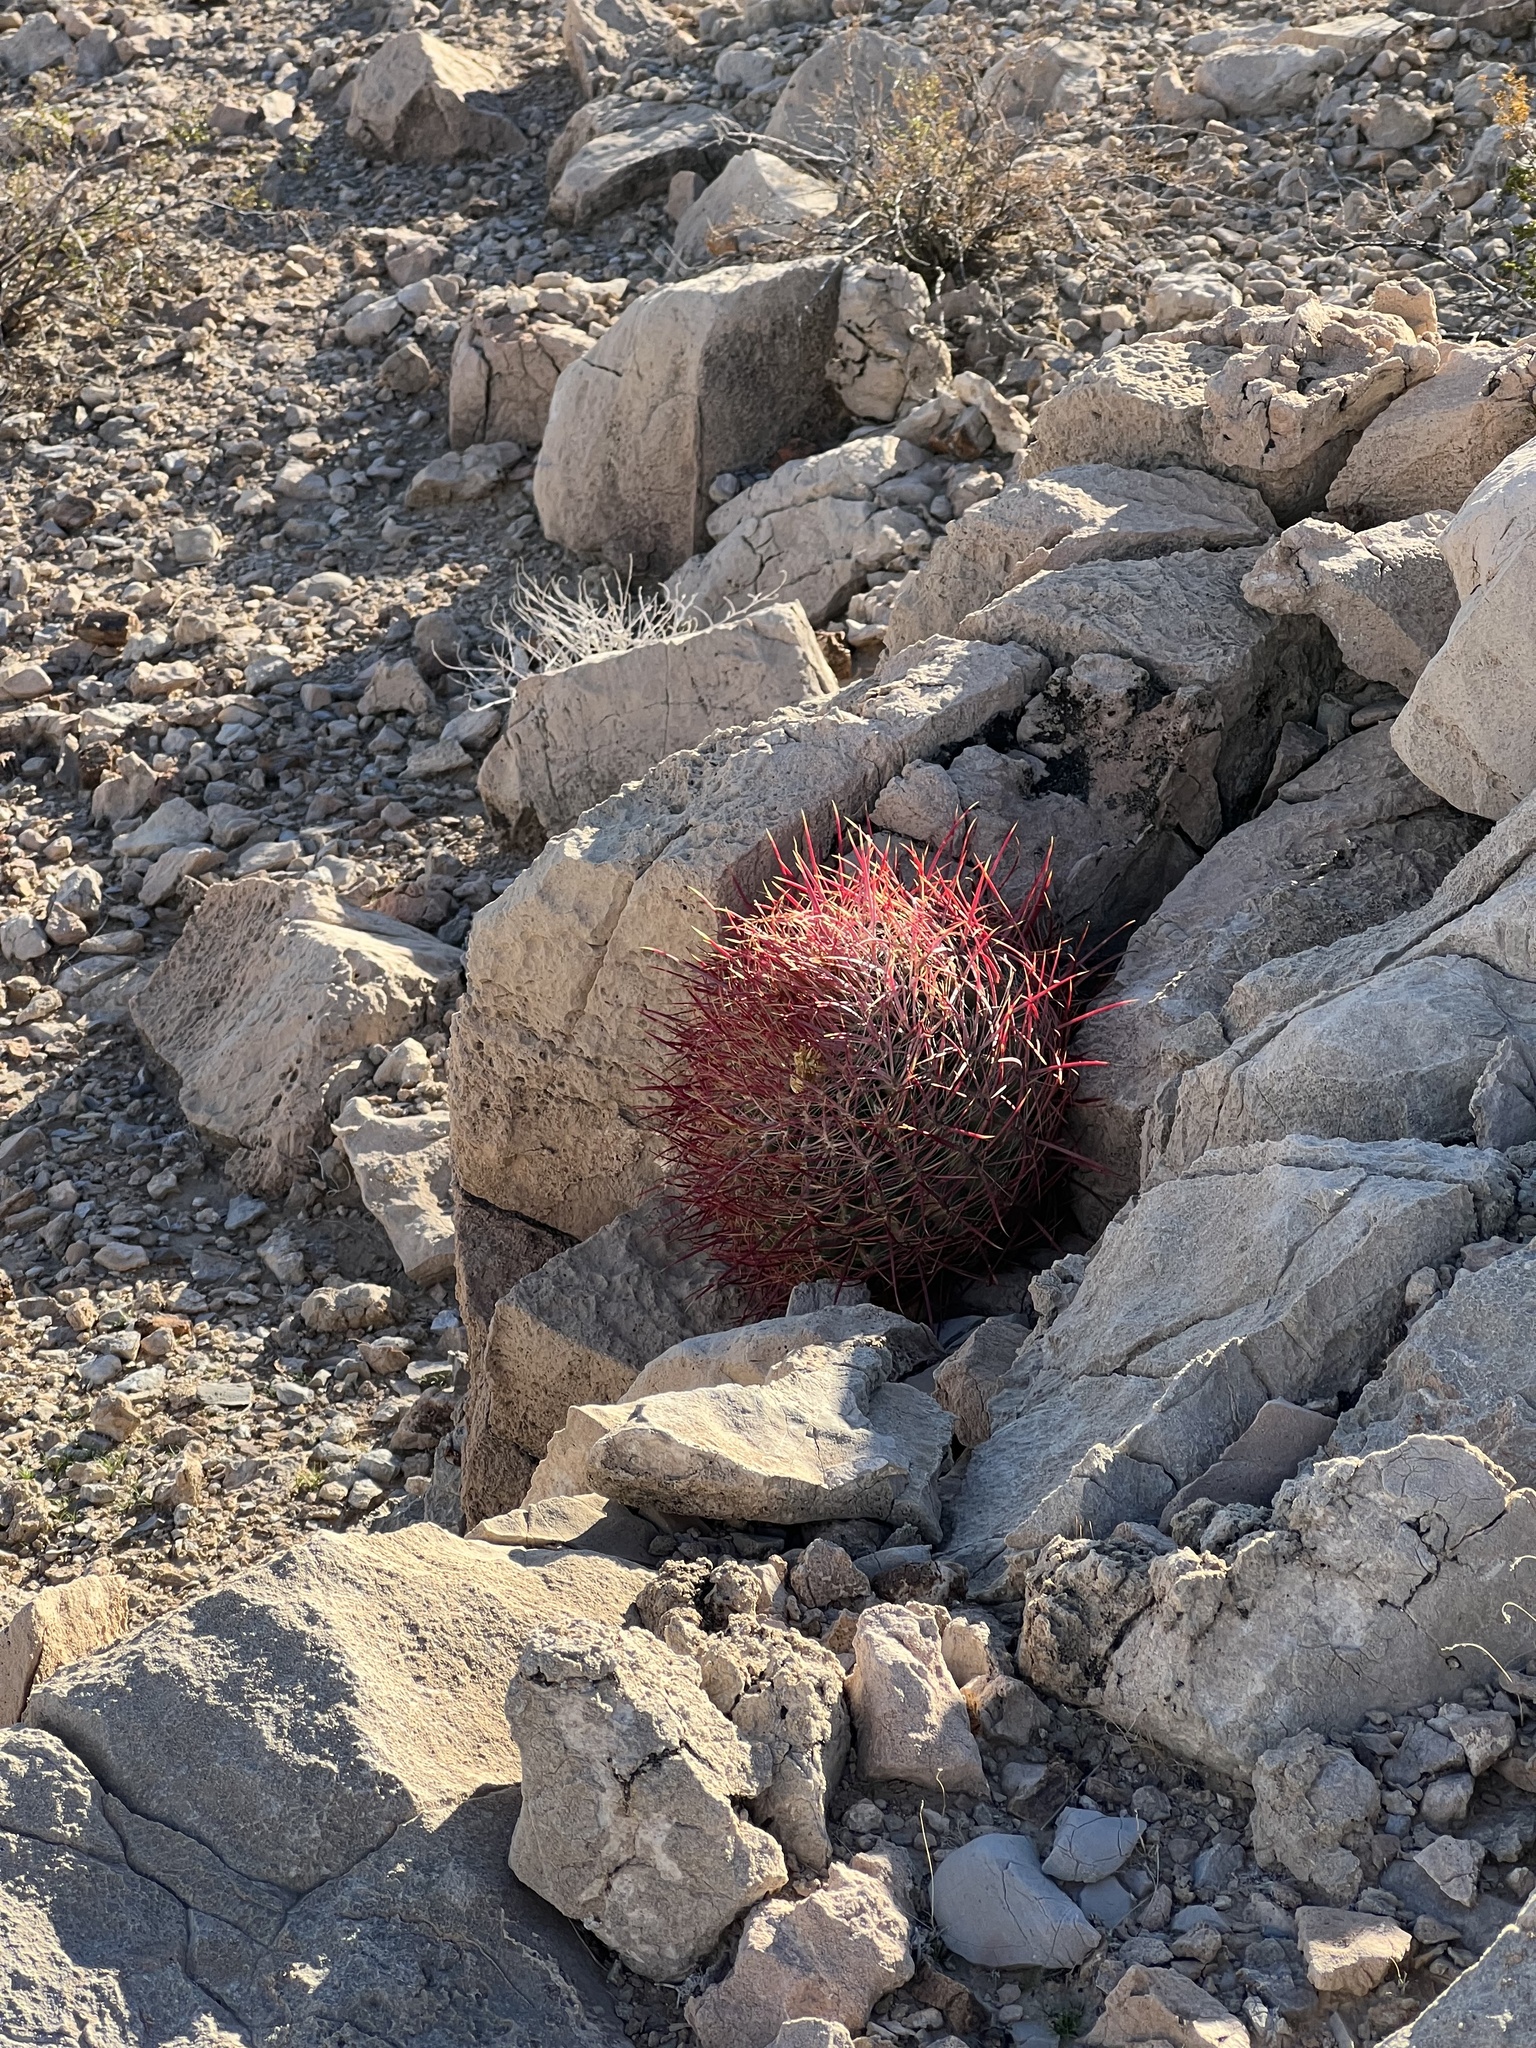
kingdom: Plantae
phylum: Tracheophyta
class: Magnoliopsida
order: Caryophyllales
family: Cactaceae
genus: Ferocactus
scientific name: Ferocactus cylindraceus
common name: California barrel cactus
